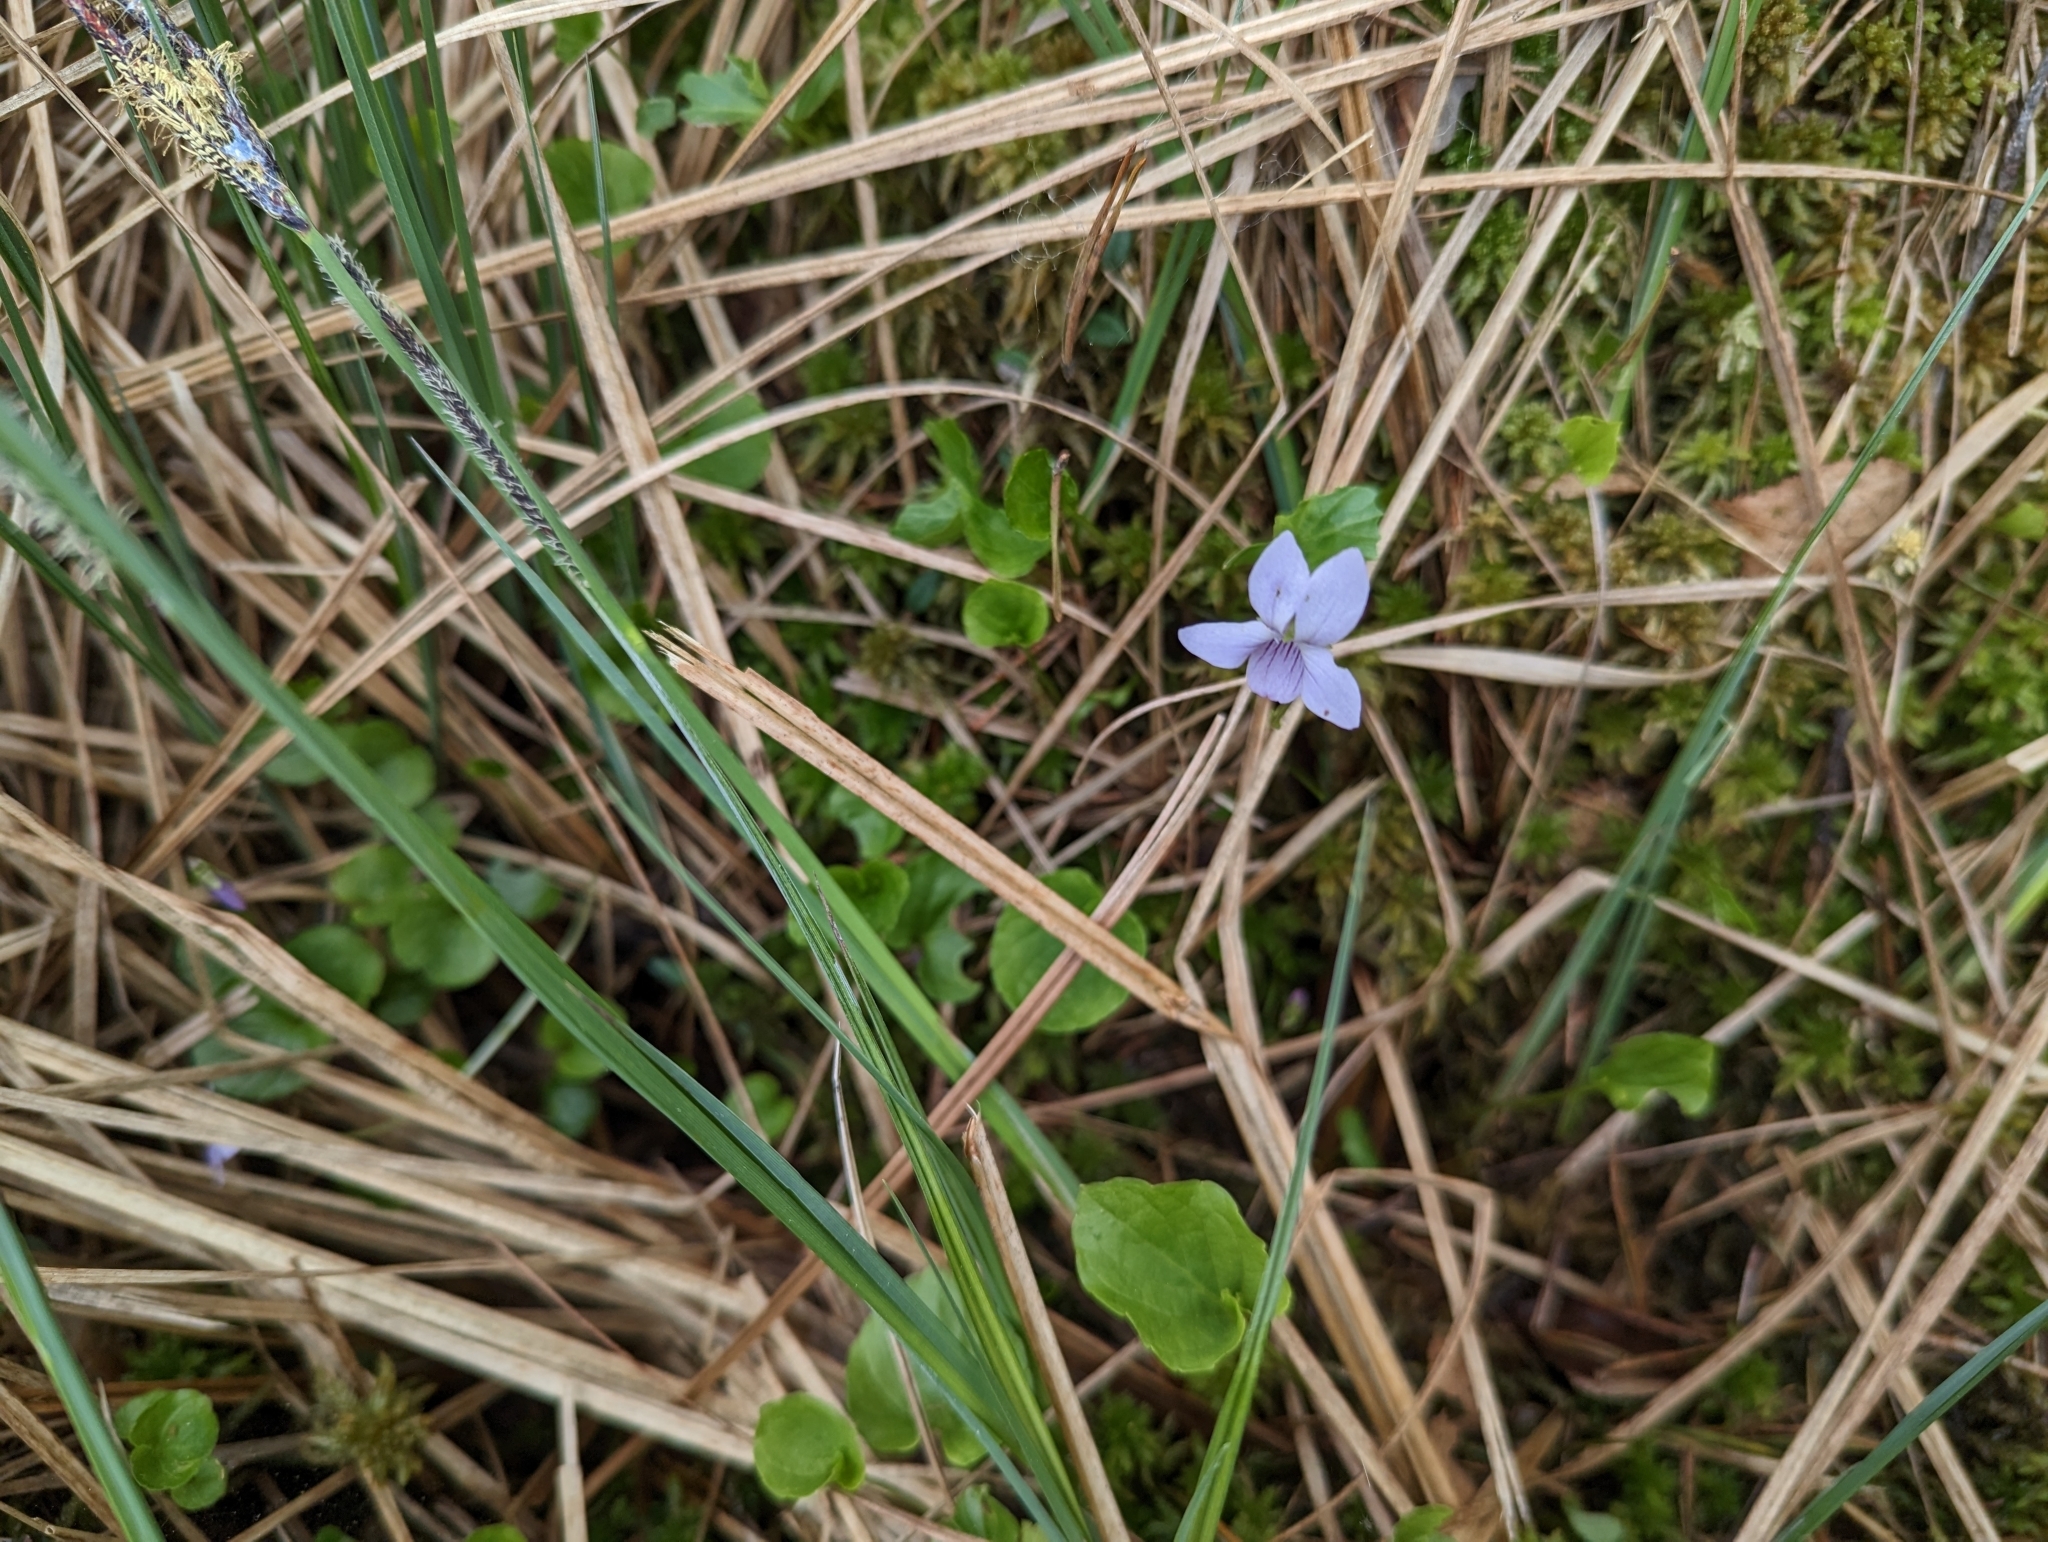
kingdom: Plantae
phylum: Tracheophyta
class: Magnoliopsida
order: Malpighiales
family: Violaceae
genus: Viola
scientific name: Viola palustris
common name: Marsh violet
